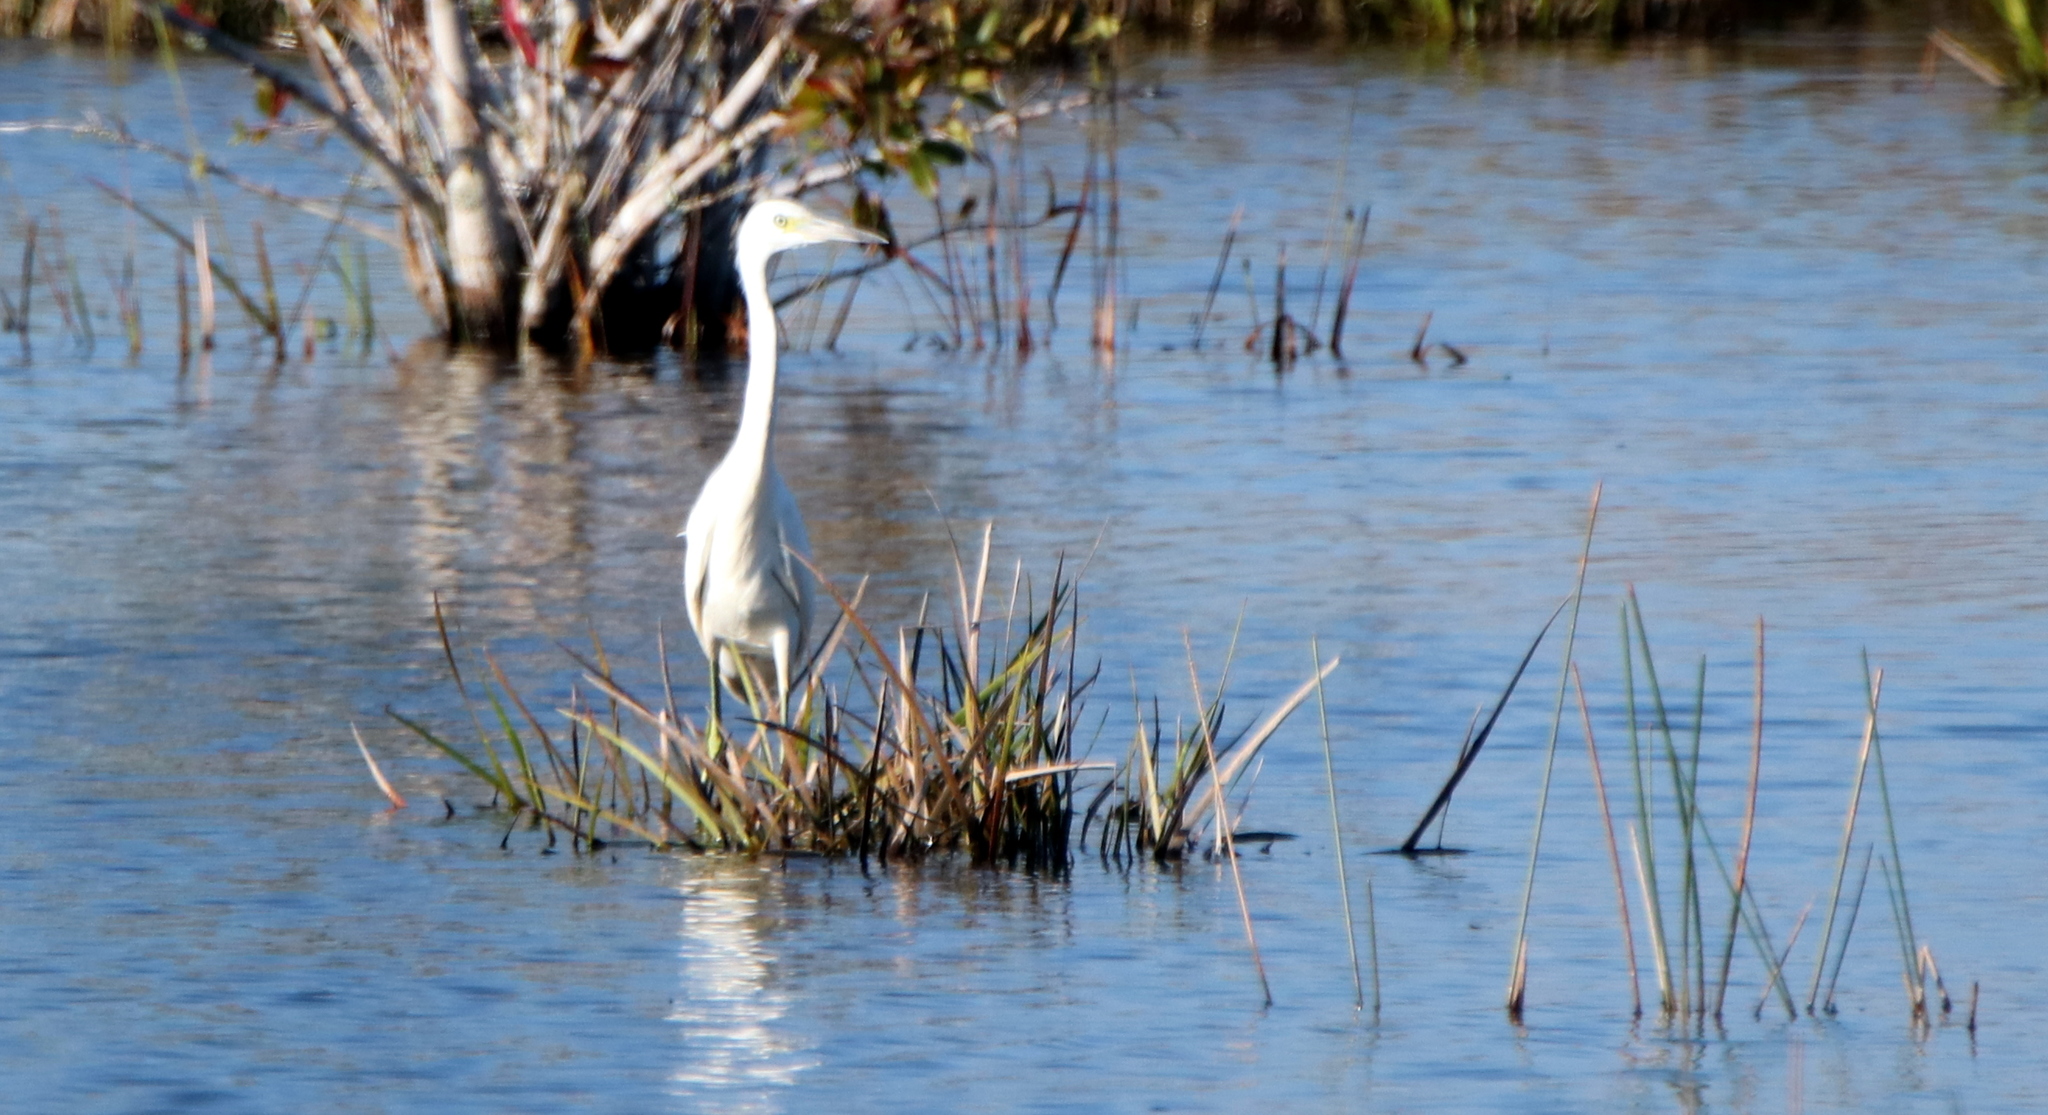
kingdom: Animalia
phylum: Chordata
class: Aves
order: Pelecaniformes
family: Ardeidae
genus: Egretta
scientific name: Egretta caerulea
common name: Little blue heron
